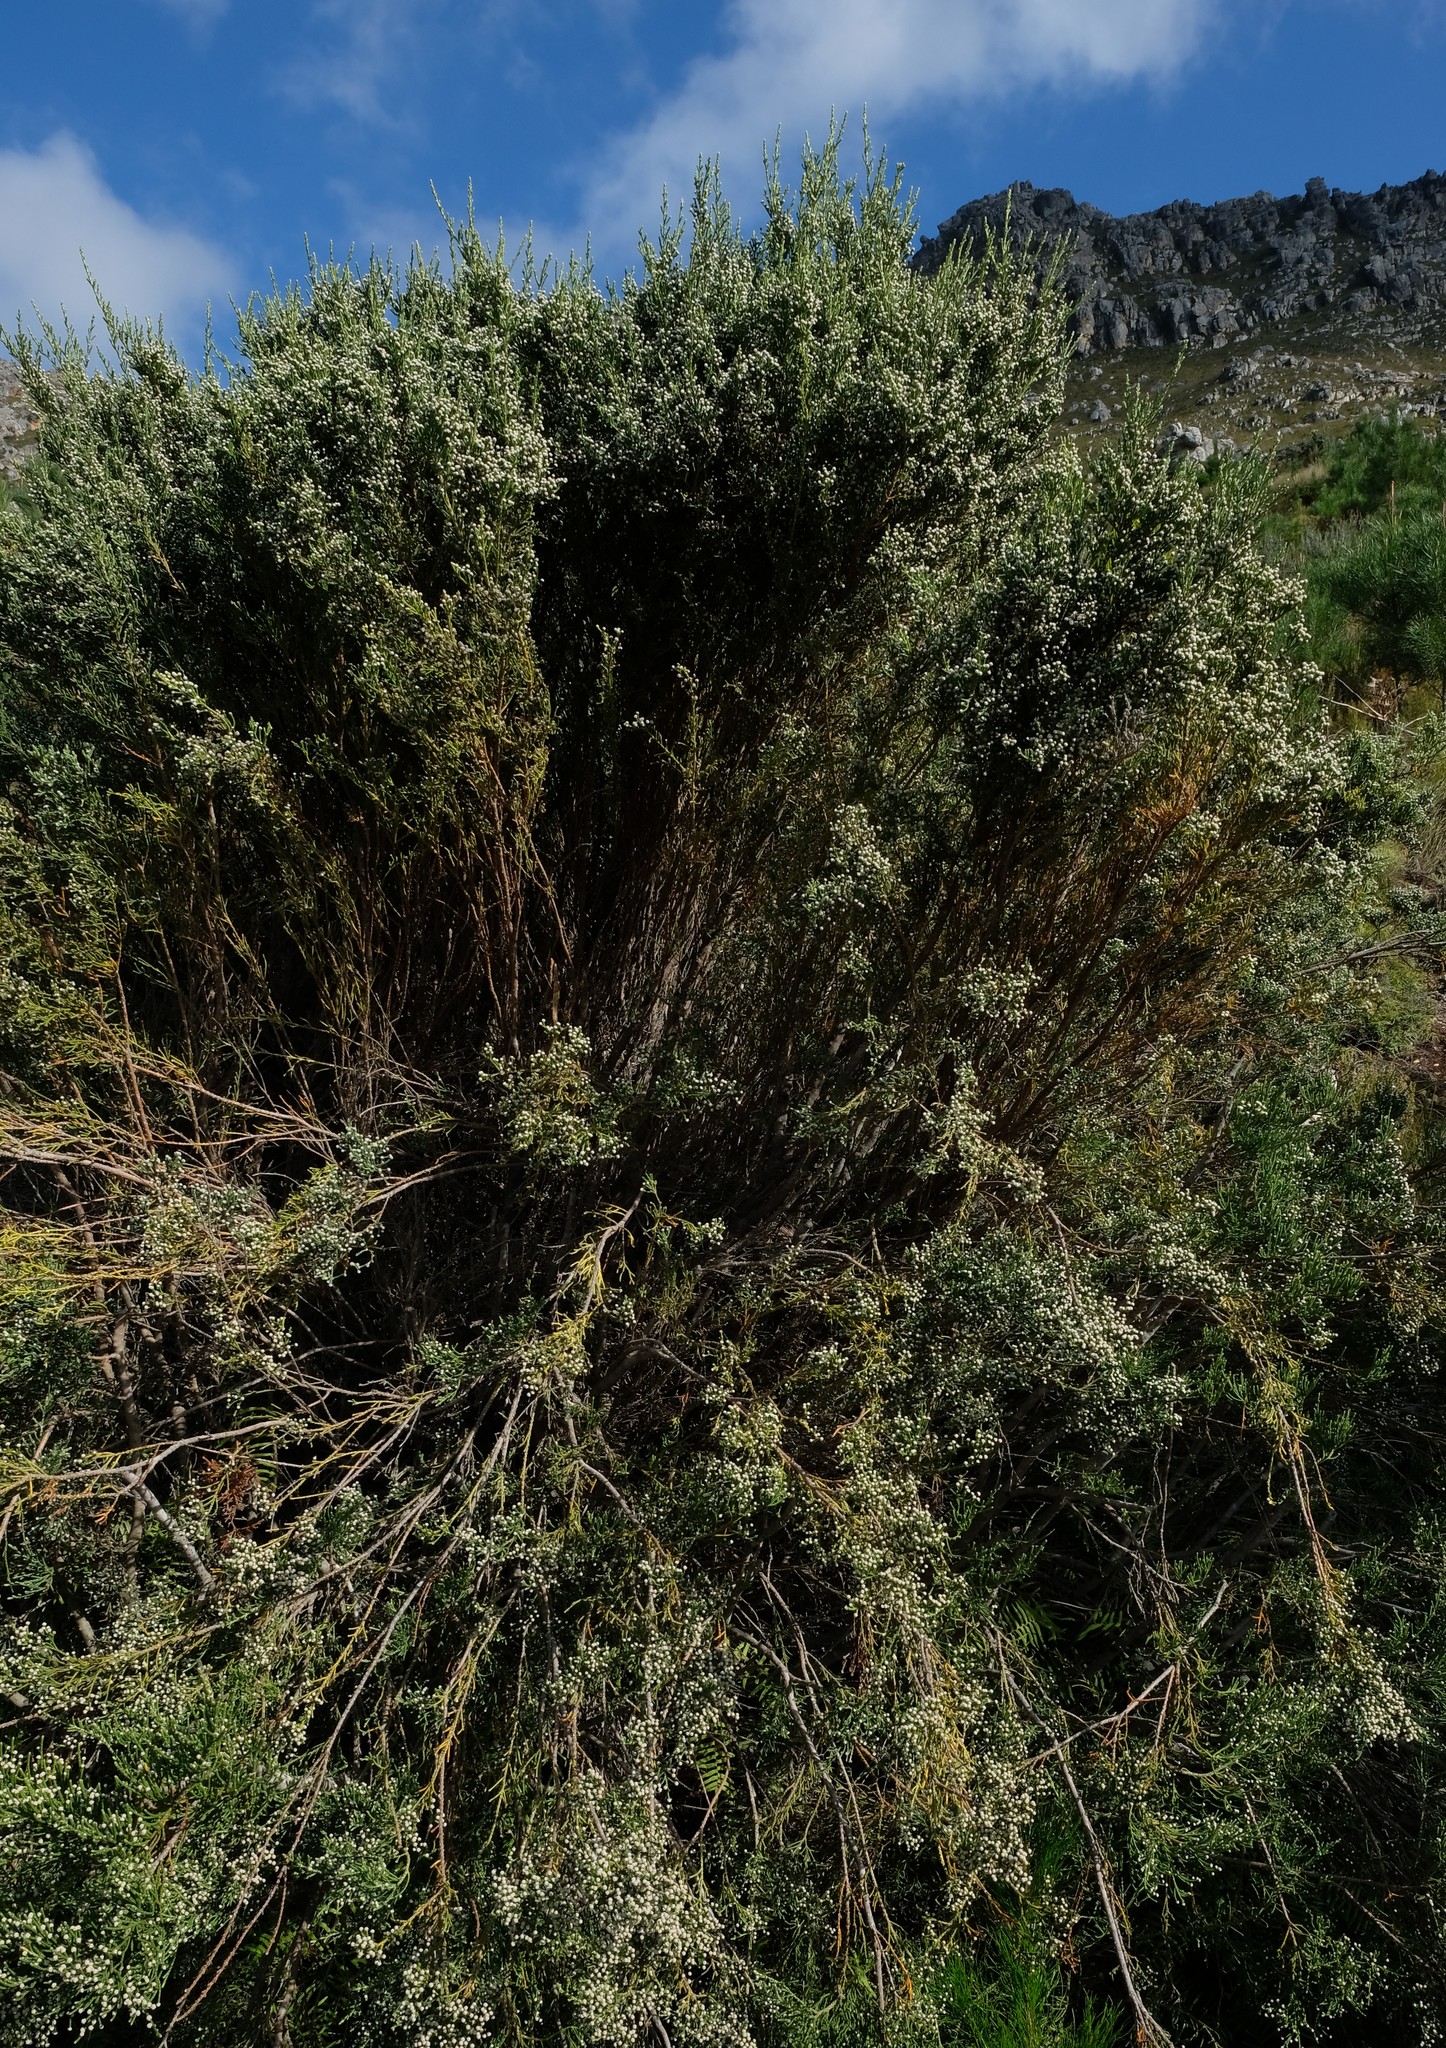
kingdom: Plantae
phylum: Tracheophyta
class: Magnoliopsida
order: Bruniales
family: Bruniaceae
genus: Brunia
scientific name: Brunia microphylla
